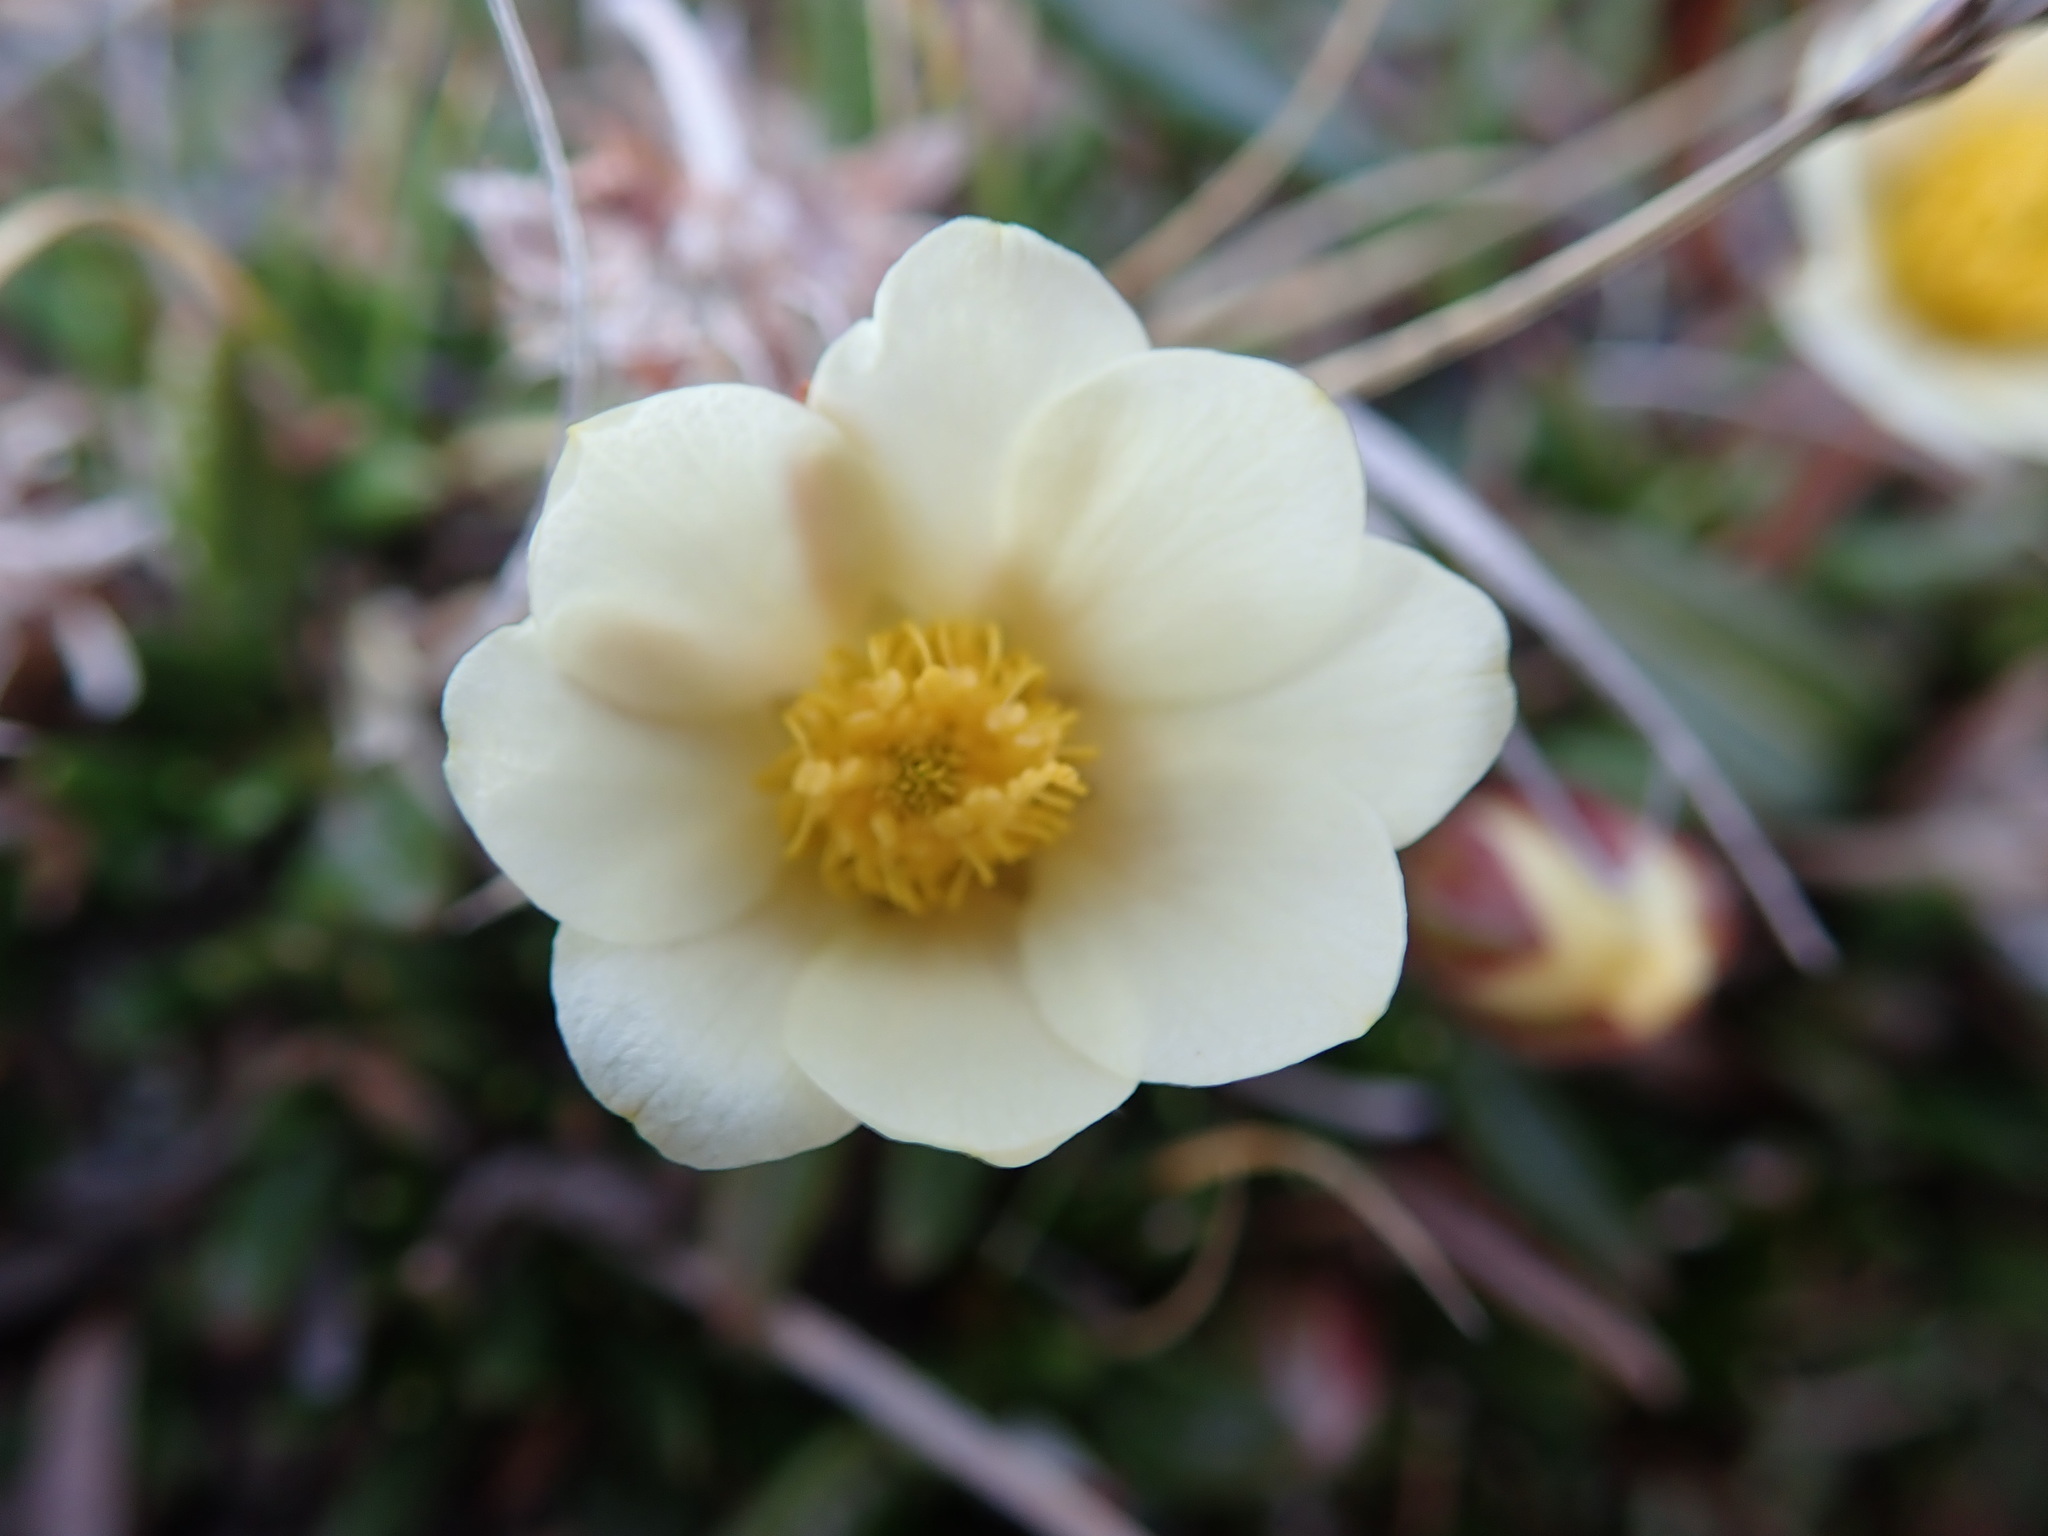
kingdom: Plantae
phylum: Tracheophyta
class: Magnoliopsida
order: Rosales
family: Rosaceae
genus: Dryas
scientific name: Dryas integrifolia
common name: Entire-leaved mountain avens
